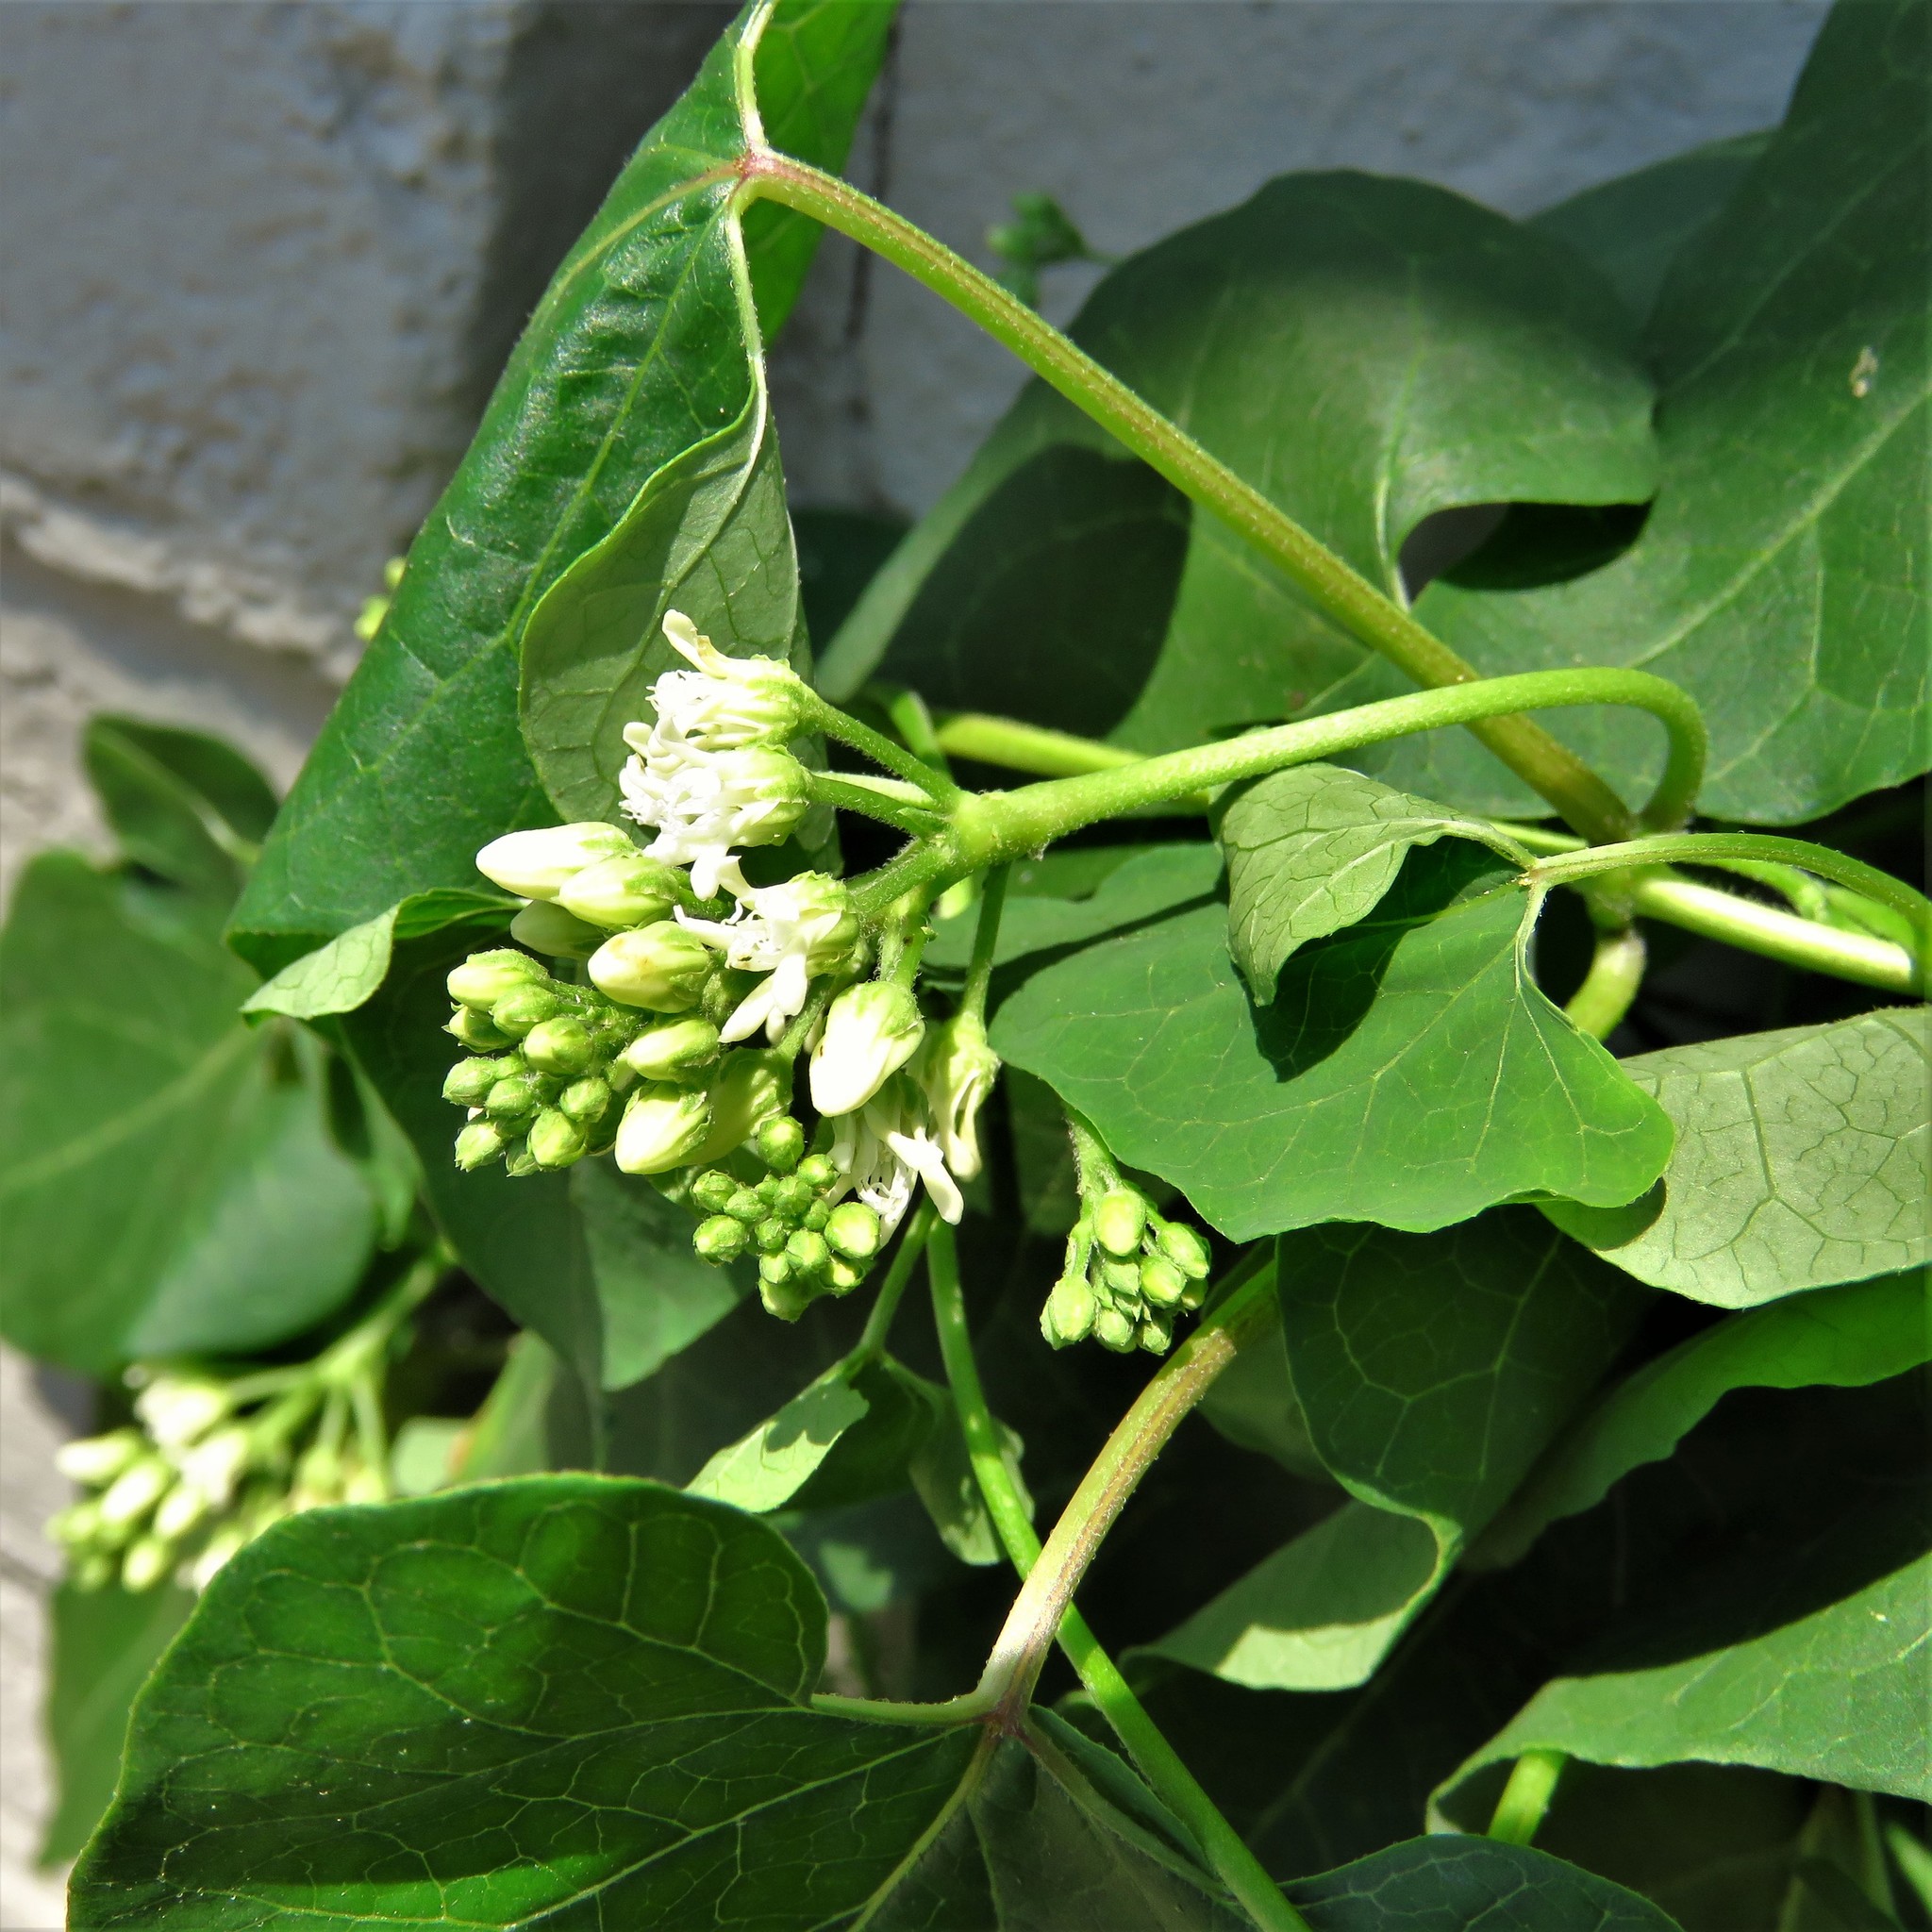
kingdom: Plantae
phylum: Tracheophyta
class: Magnoliopsida
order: Gentianales
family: Apocynaceae
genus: Cynanchum
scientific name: Cynanchum laeve
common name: Sandvine
